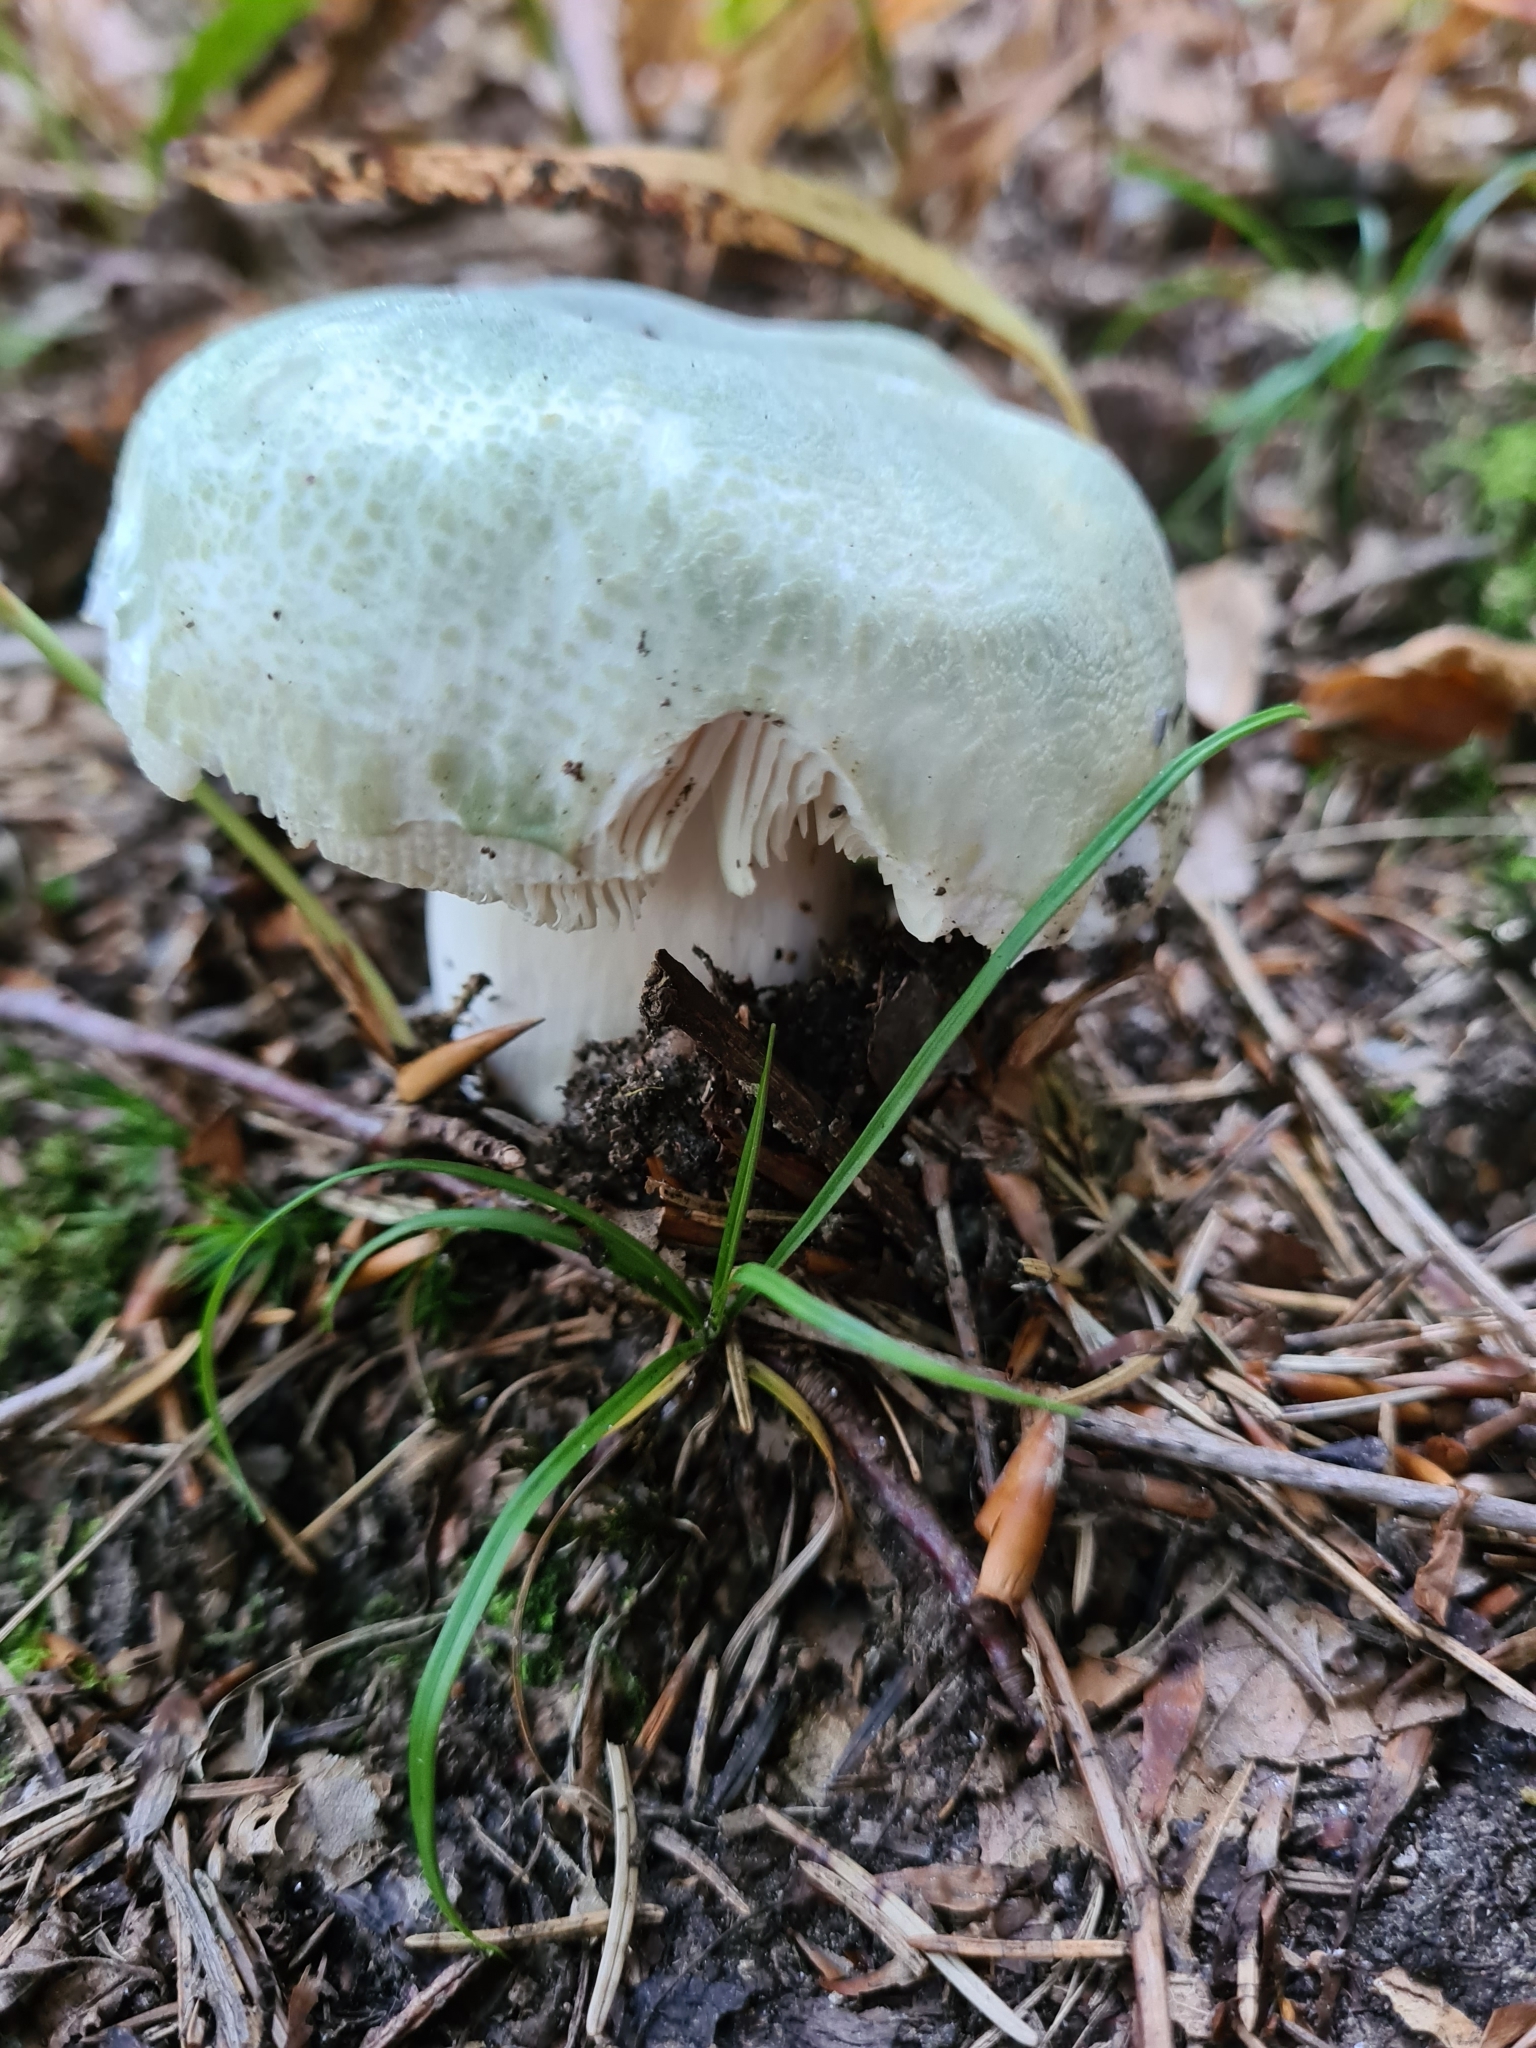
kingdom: Fungi
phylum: Basidiomycota
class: Agaricomycetes
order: Russulales
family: Russulaceae
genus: Russula
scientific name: Russula virescens
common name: Greencracked brittlegill
